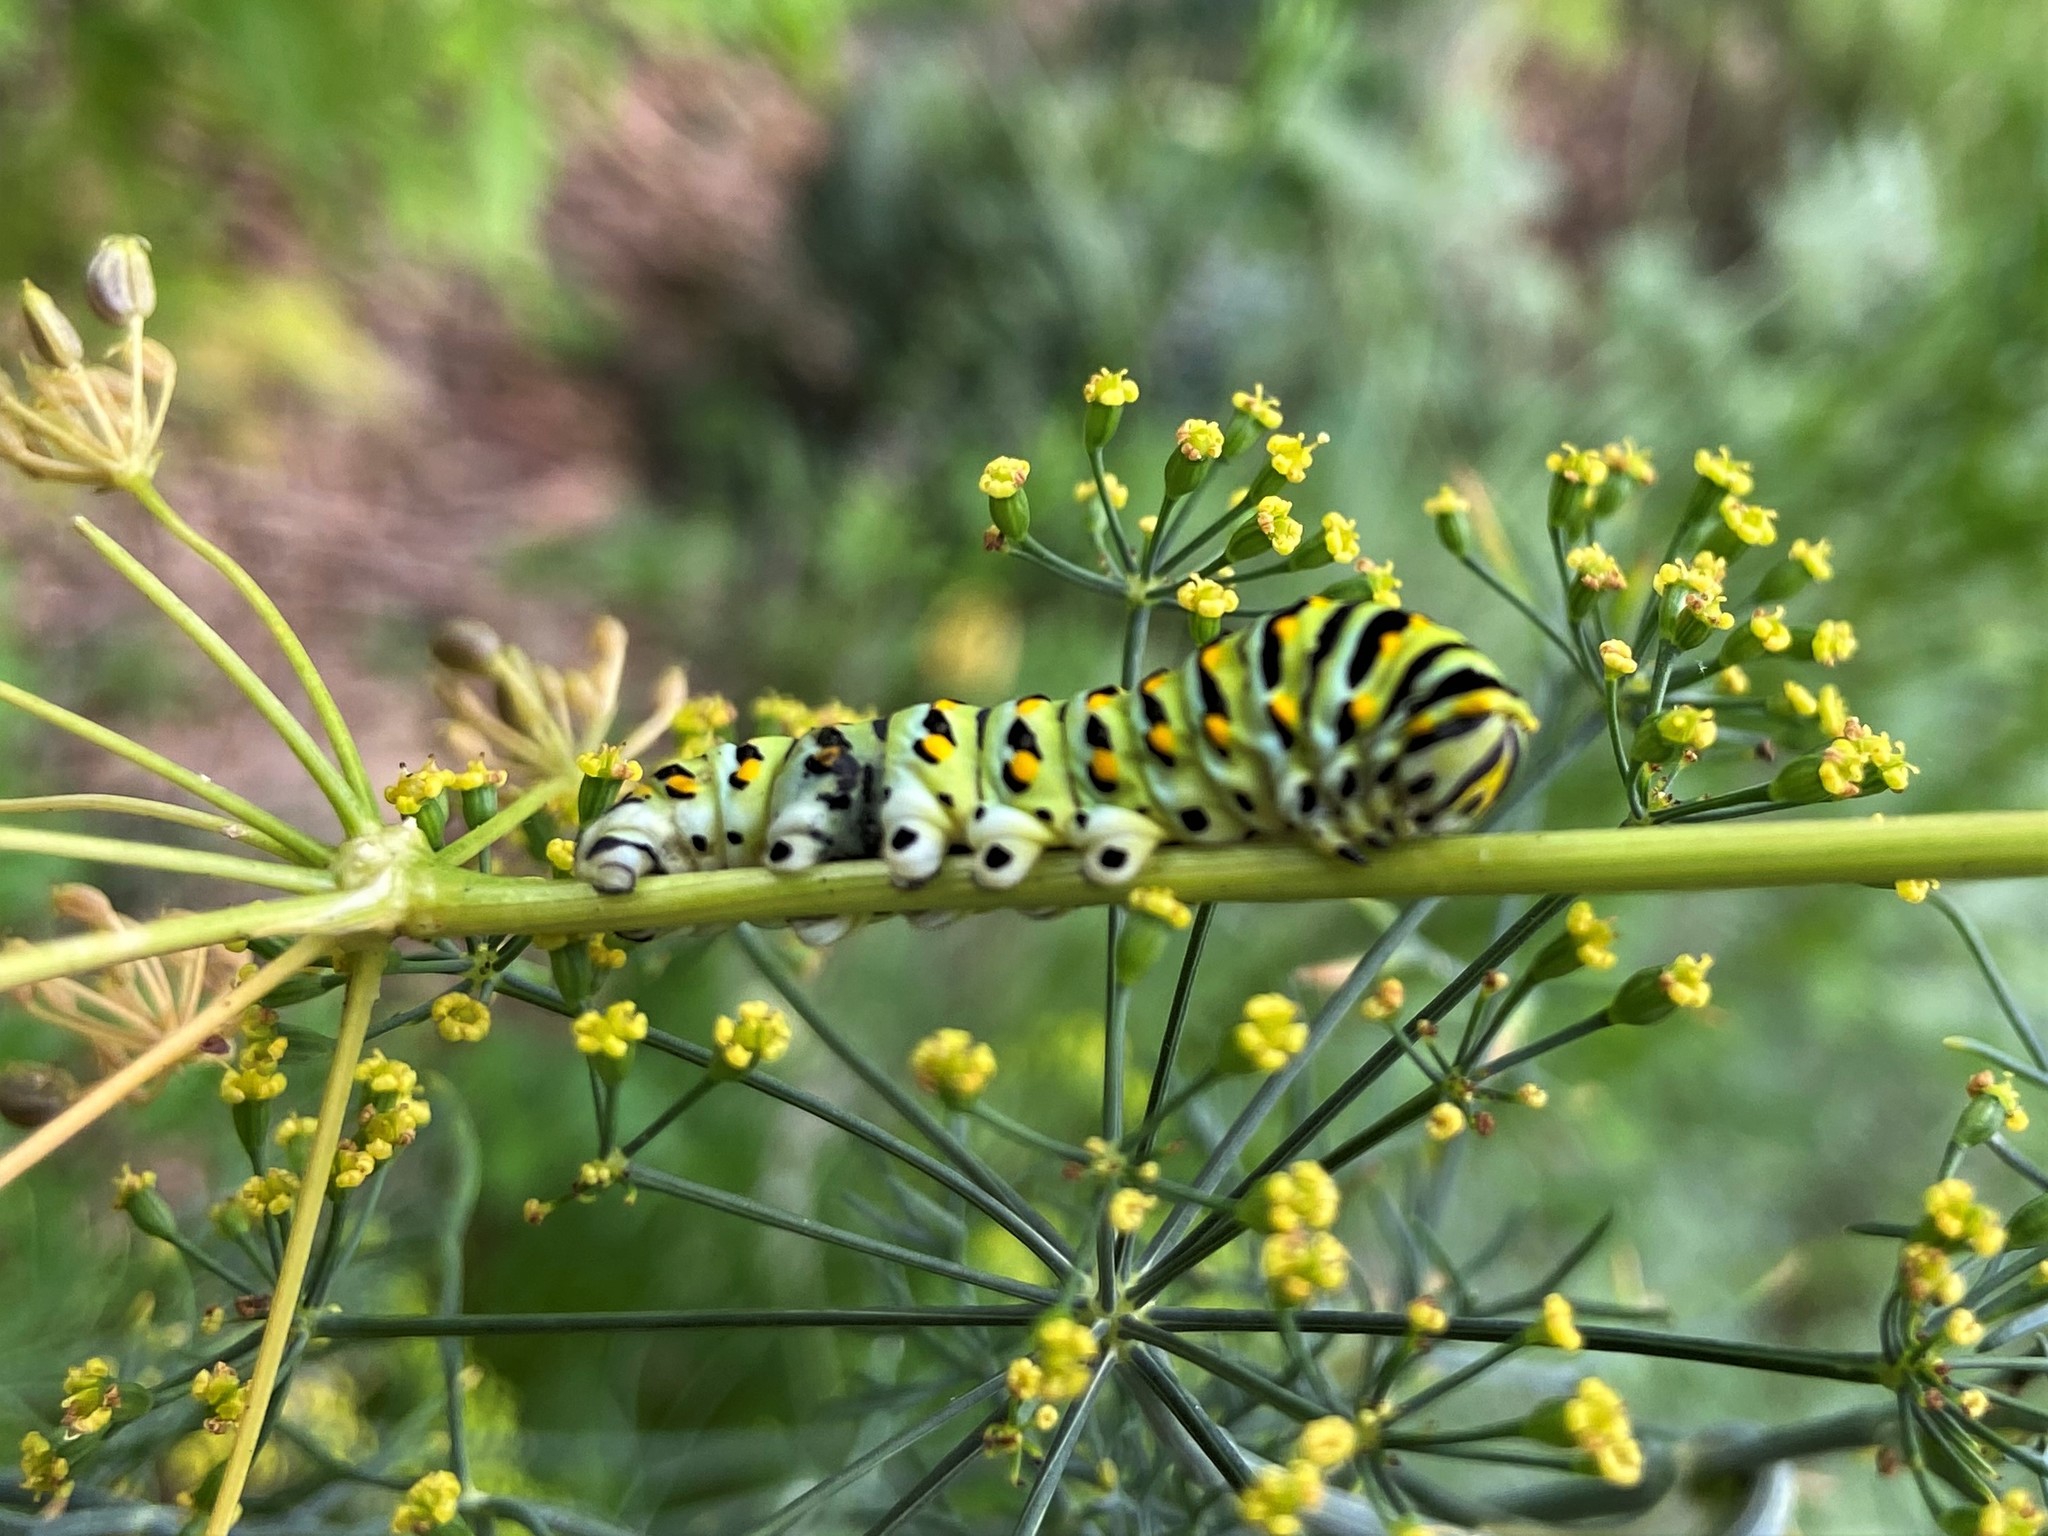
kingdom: Animalia
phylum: Arthropoda
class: Insecta
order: Lepidoptera
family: Papilionidae
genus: Papilio
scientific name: Papilio polyxenes
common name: Black swallowtail
